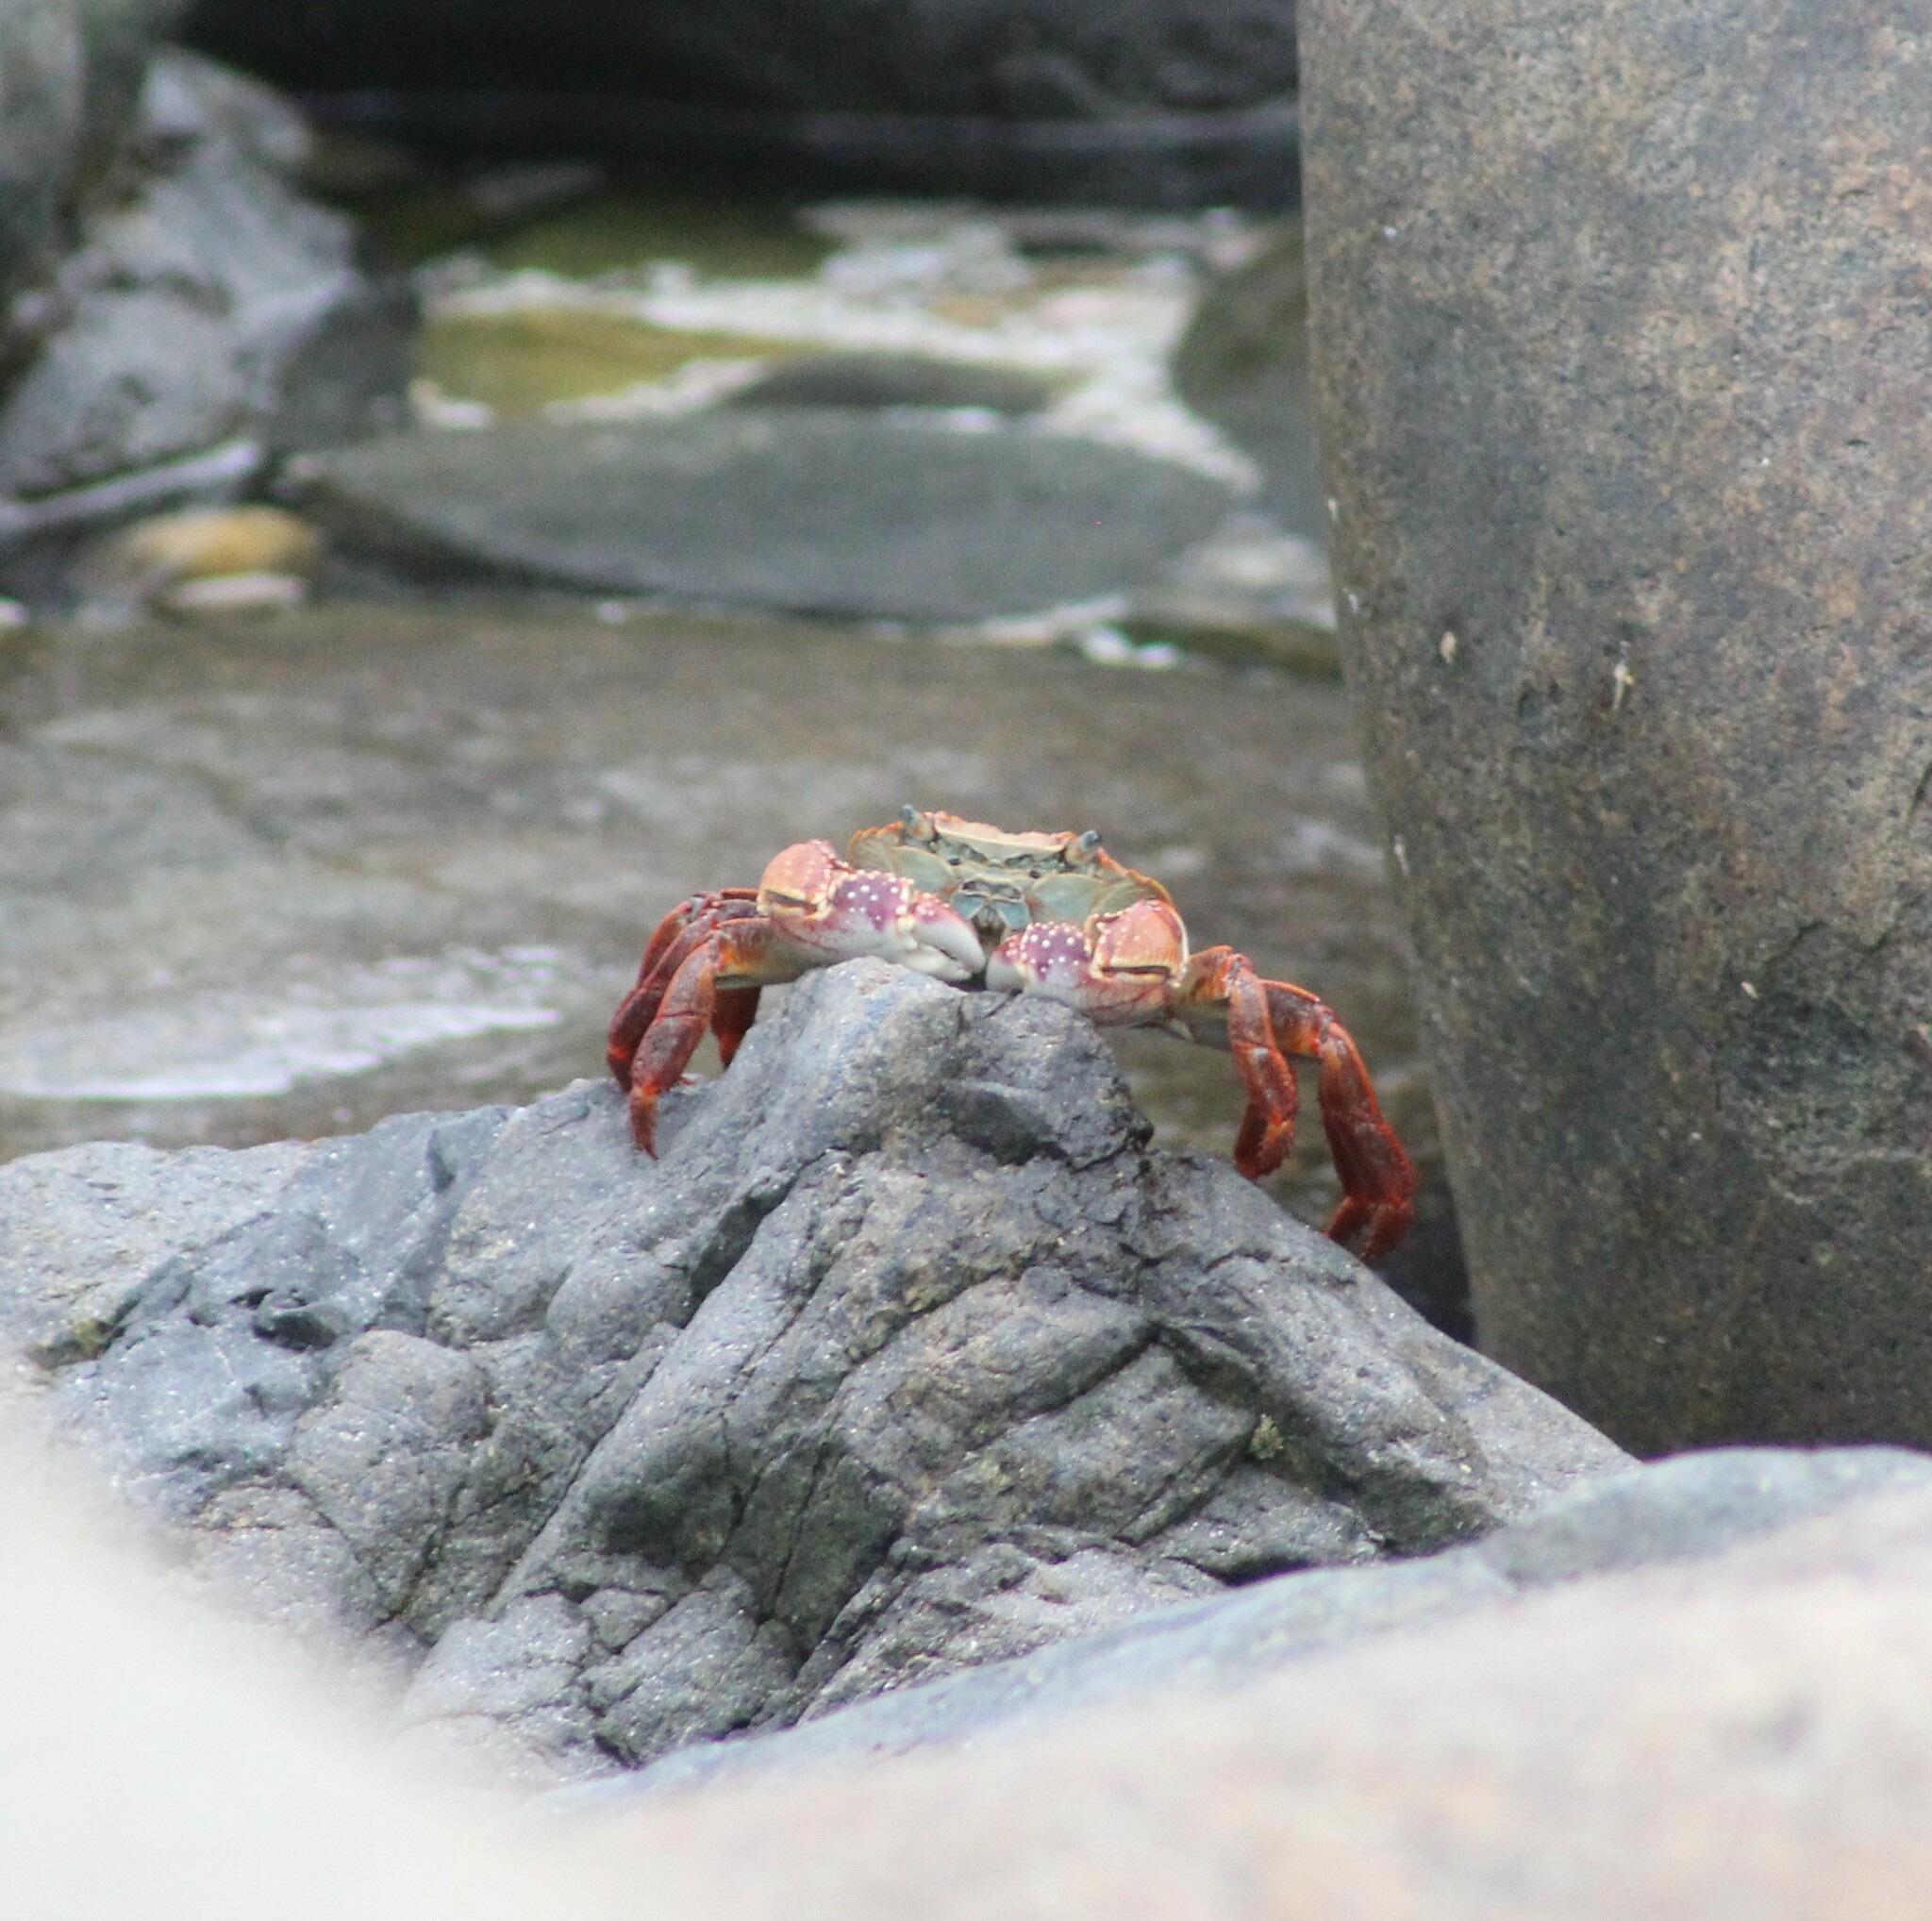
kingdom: Animalia
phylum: Arthropoda
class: Malacostraca
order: Decapoda
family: Grapsidae
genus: Leptograpsus
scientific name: Leptograpsus variegatus
